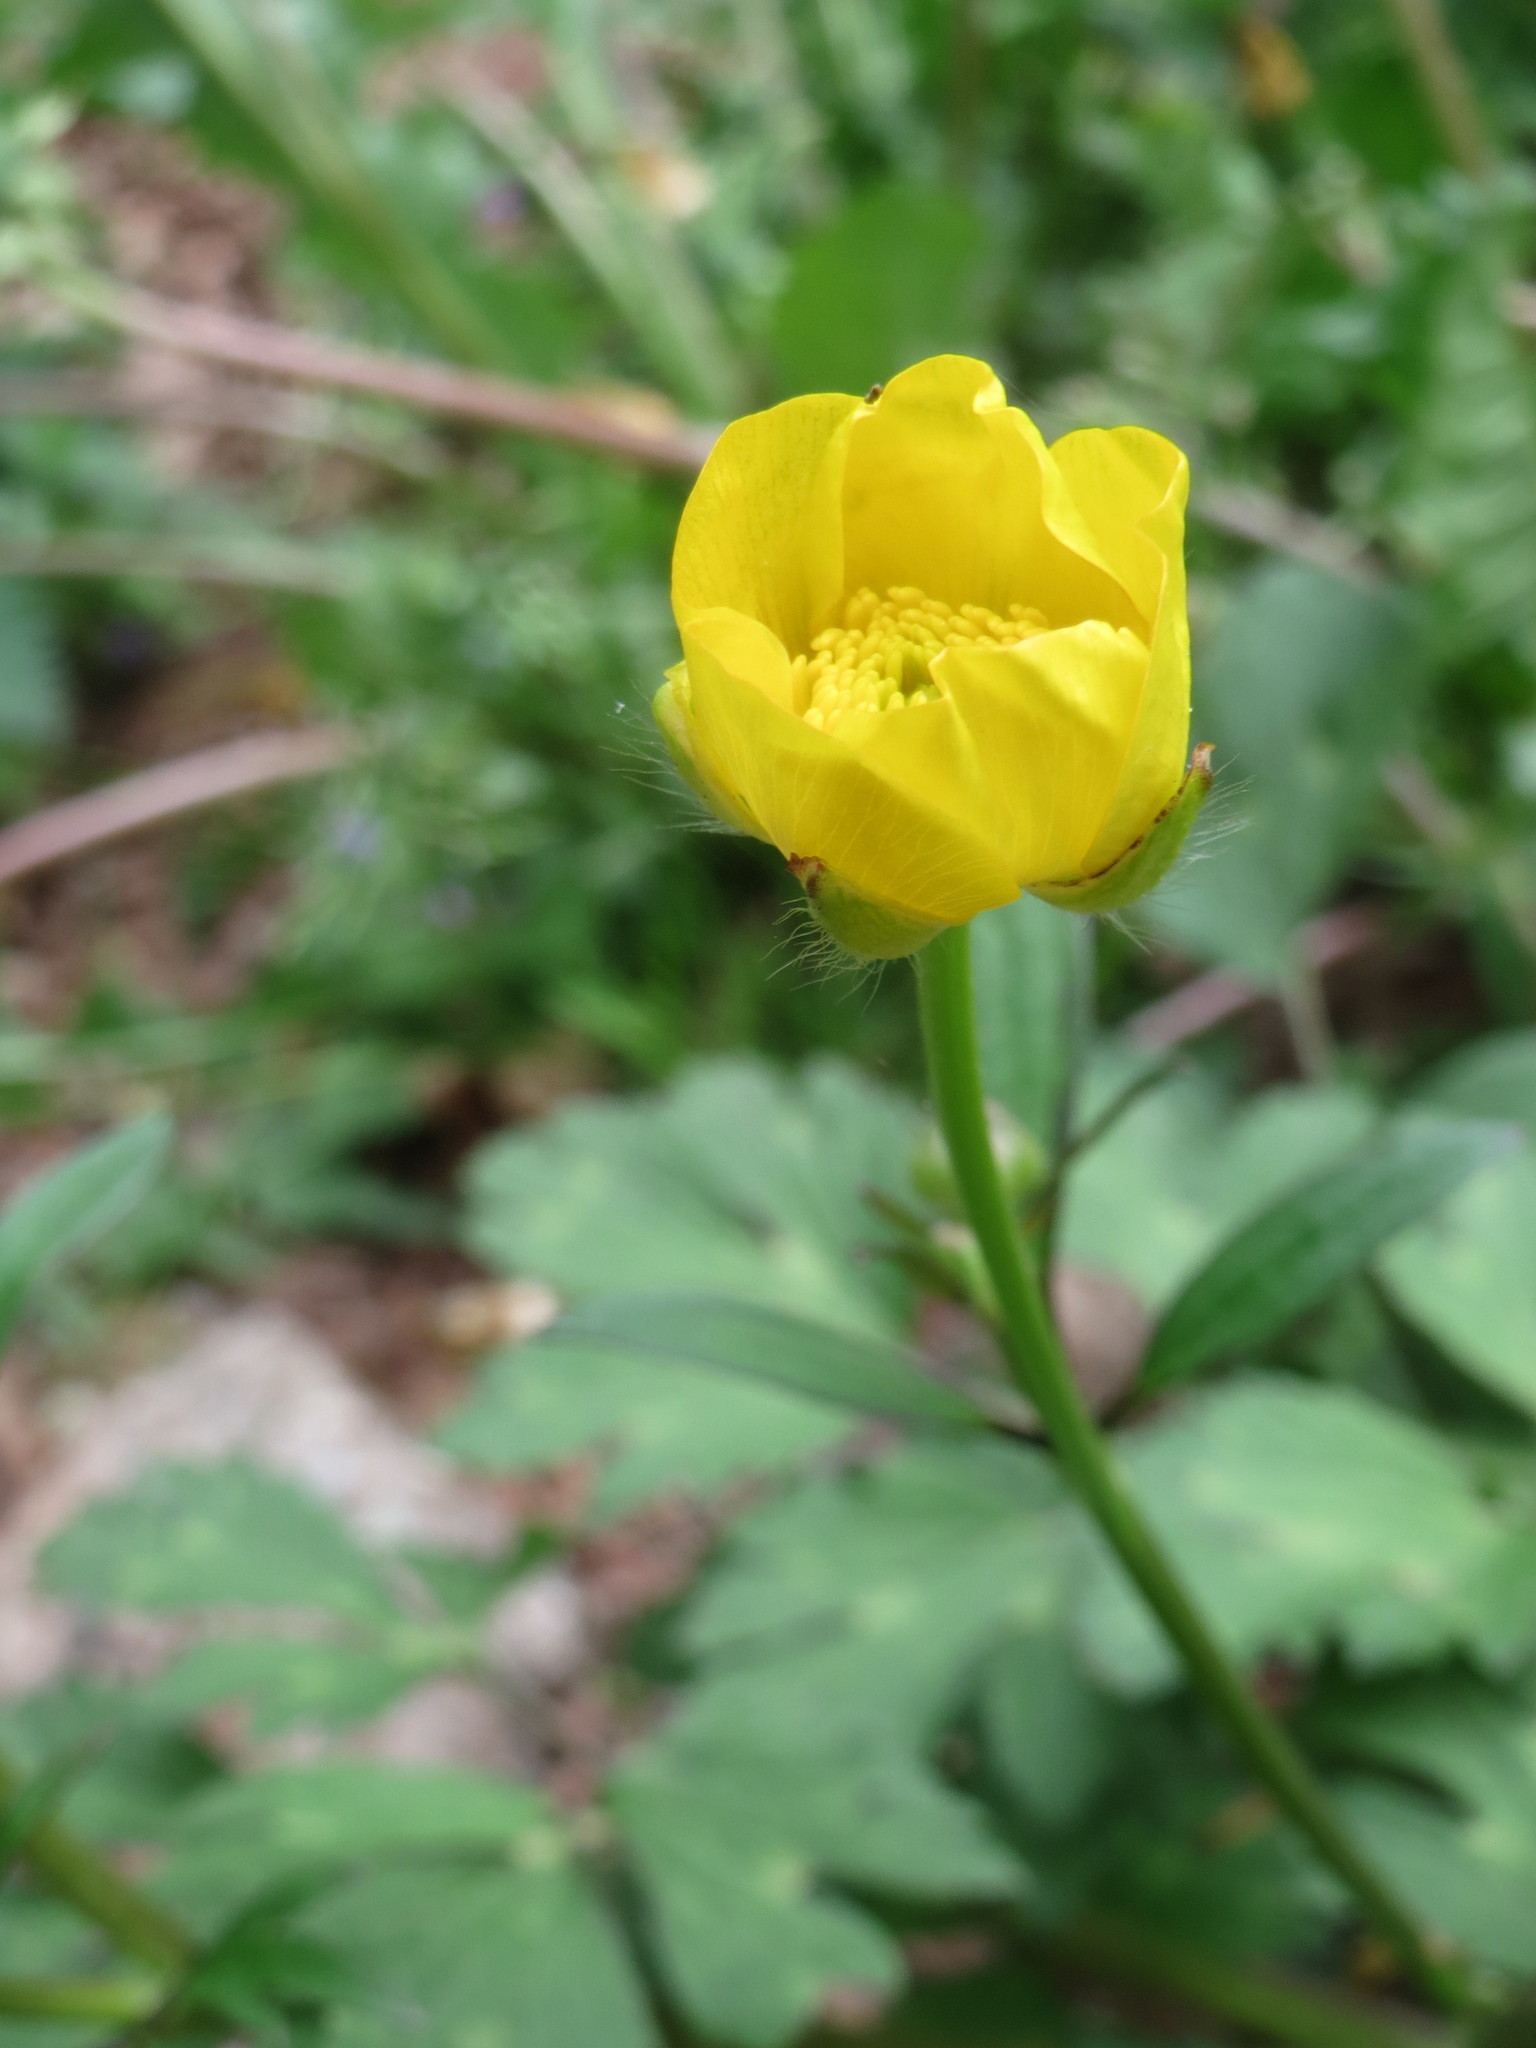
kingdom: Plantae
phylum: Tracheophyta
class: Magnoliopsida
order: Ranunculales
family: Ranunculaceae
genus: Ranunculus
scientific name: Ranunculus bulbosus
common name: Bulbous buttercup
